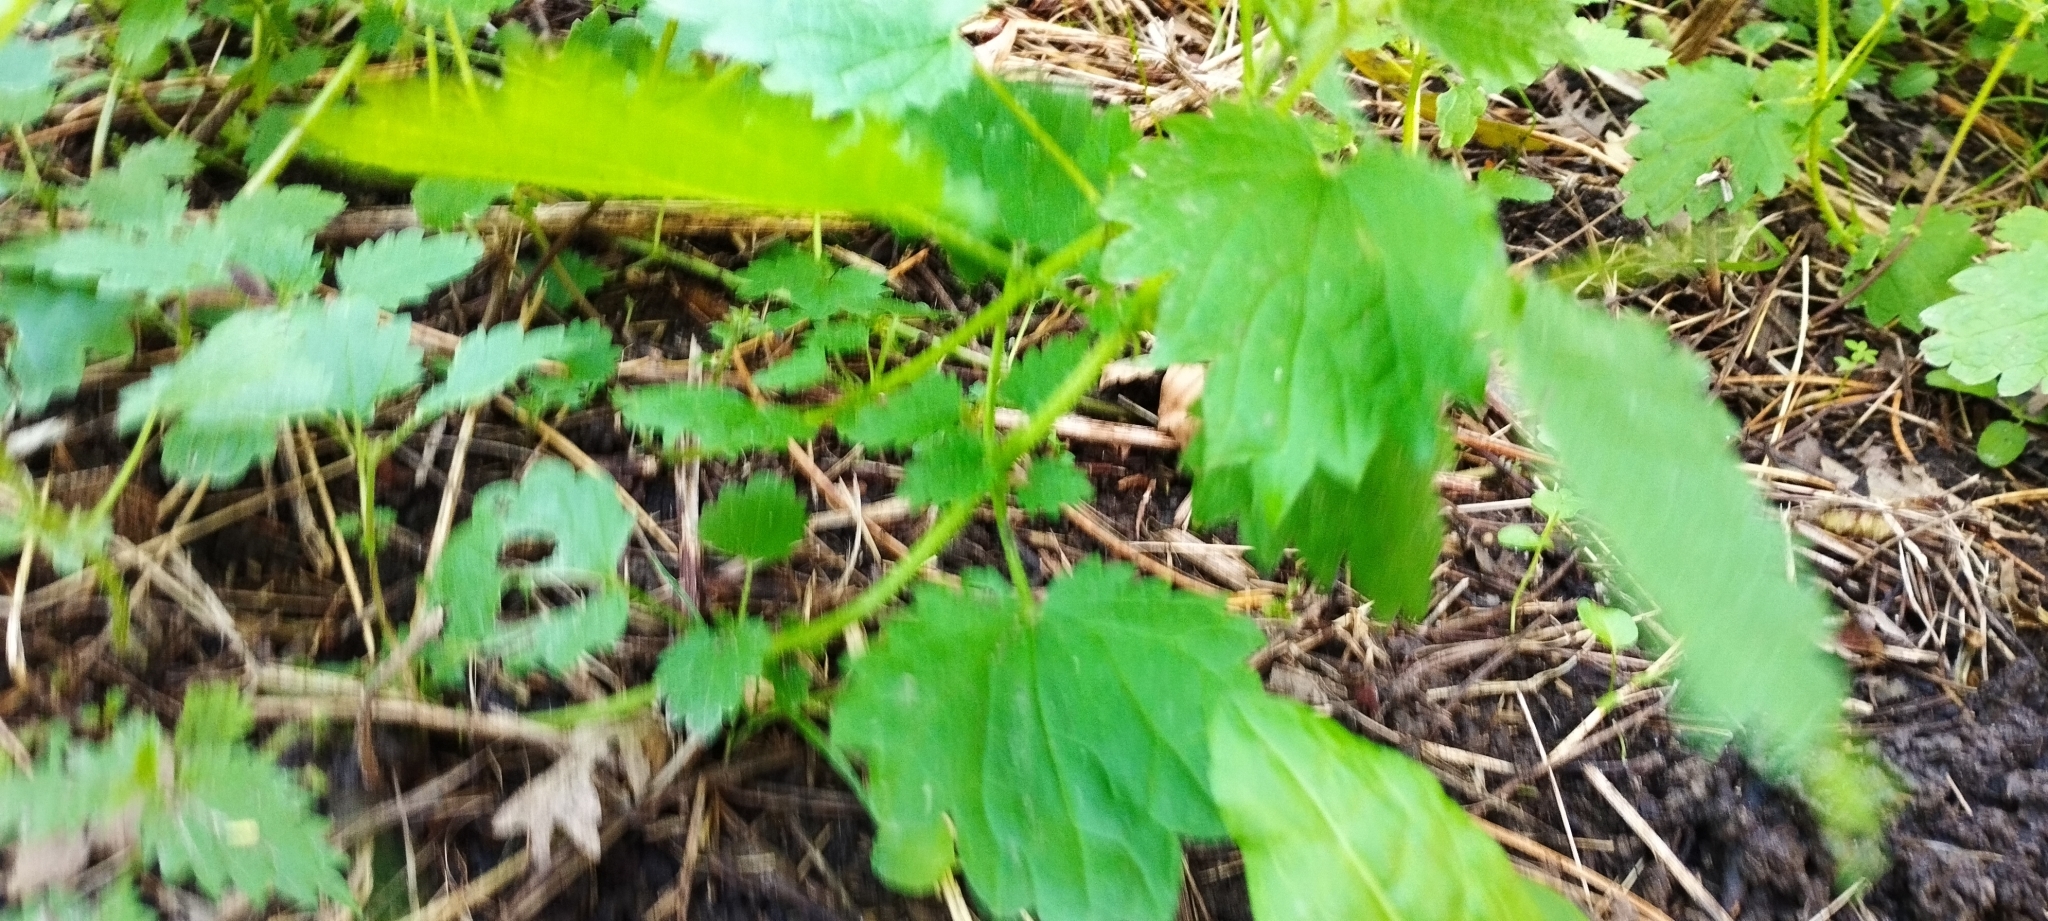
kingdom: Plantae
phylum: Tracheophyta
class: Magnoliopsida
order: Rosales
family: Urticaceae
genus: Urtica
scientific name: Urtica dioica
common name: Common nettle
